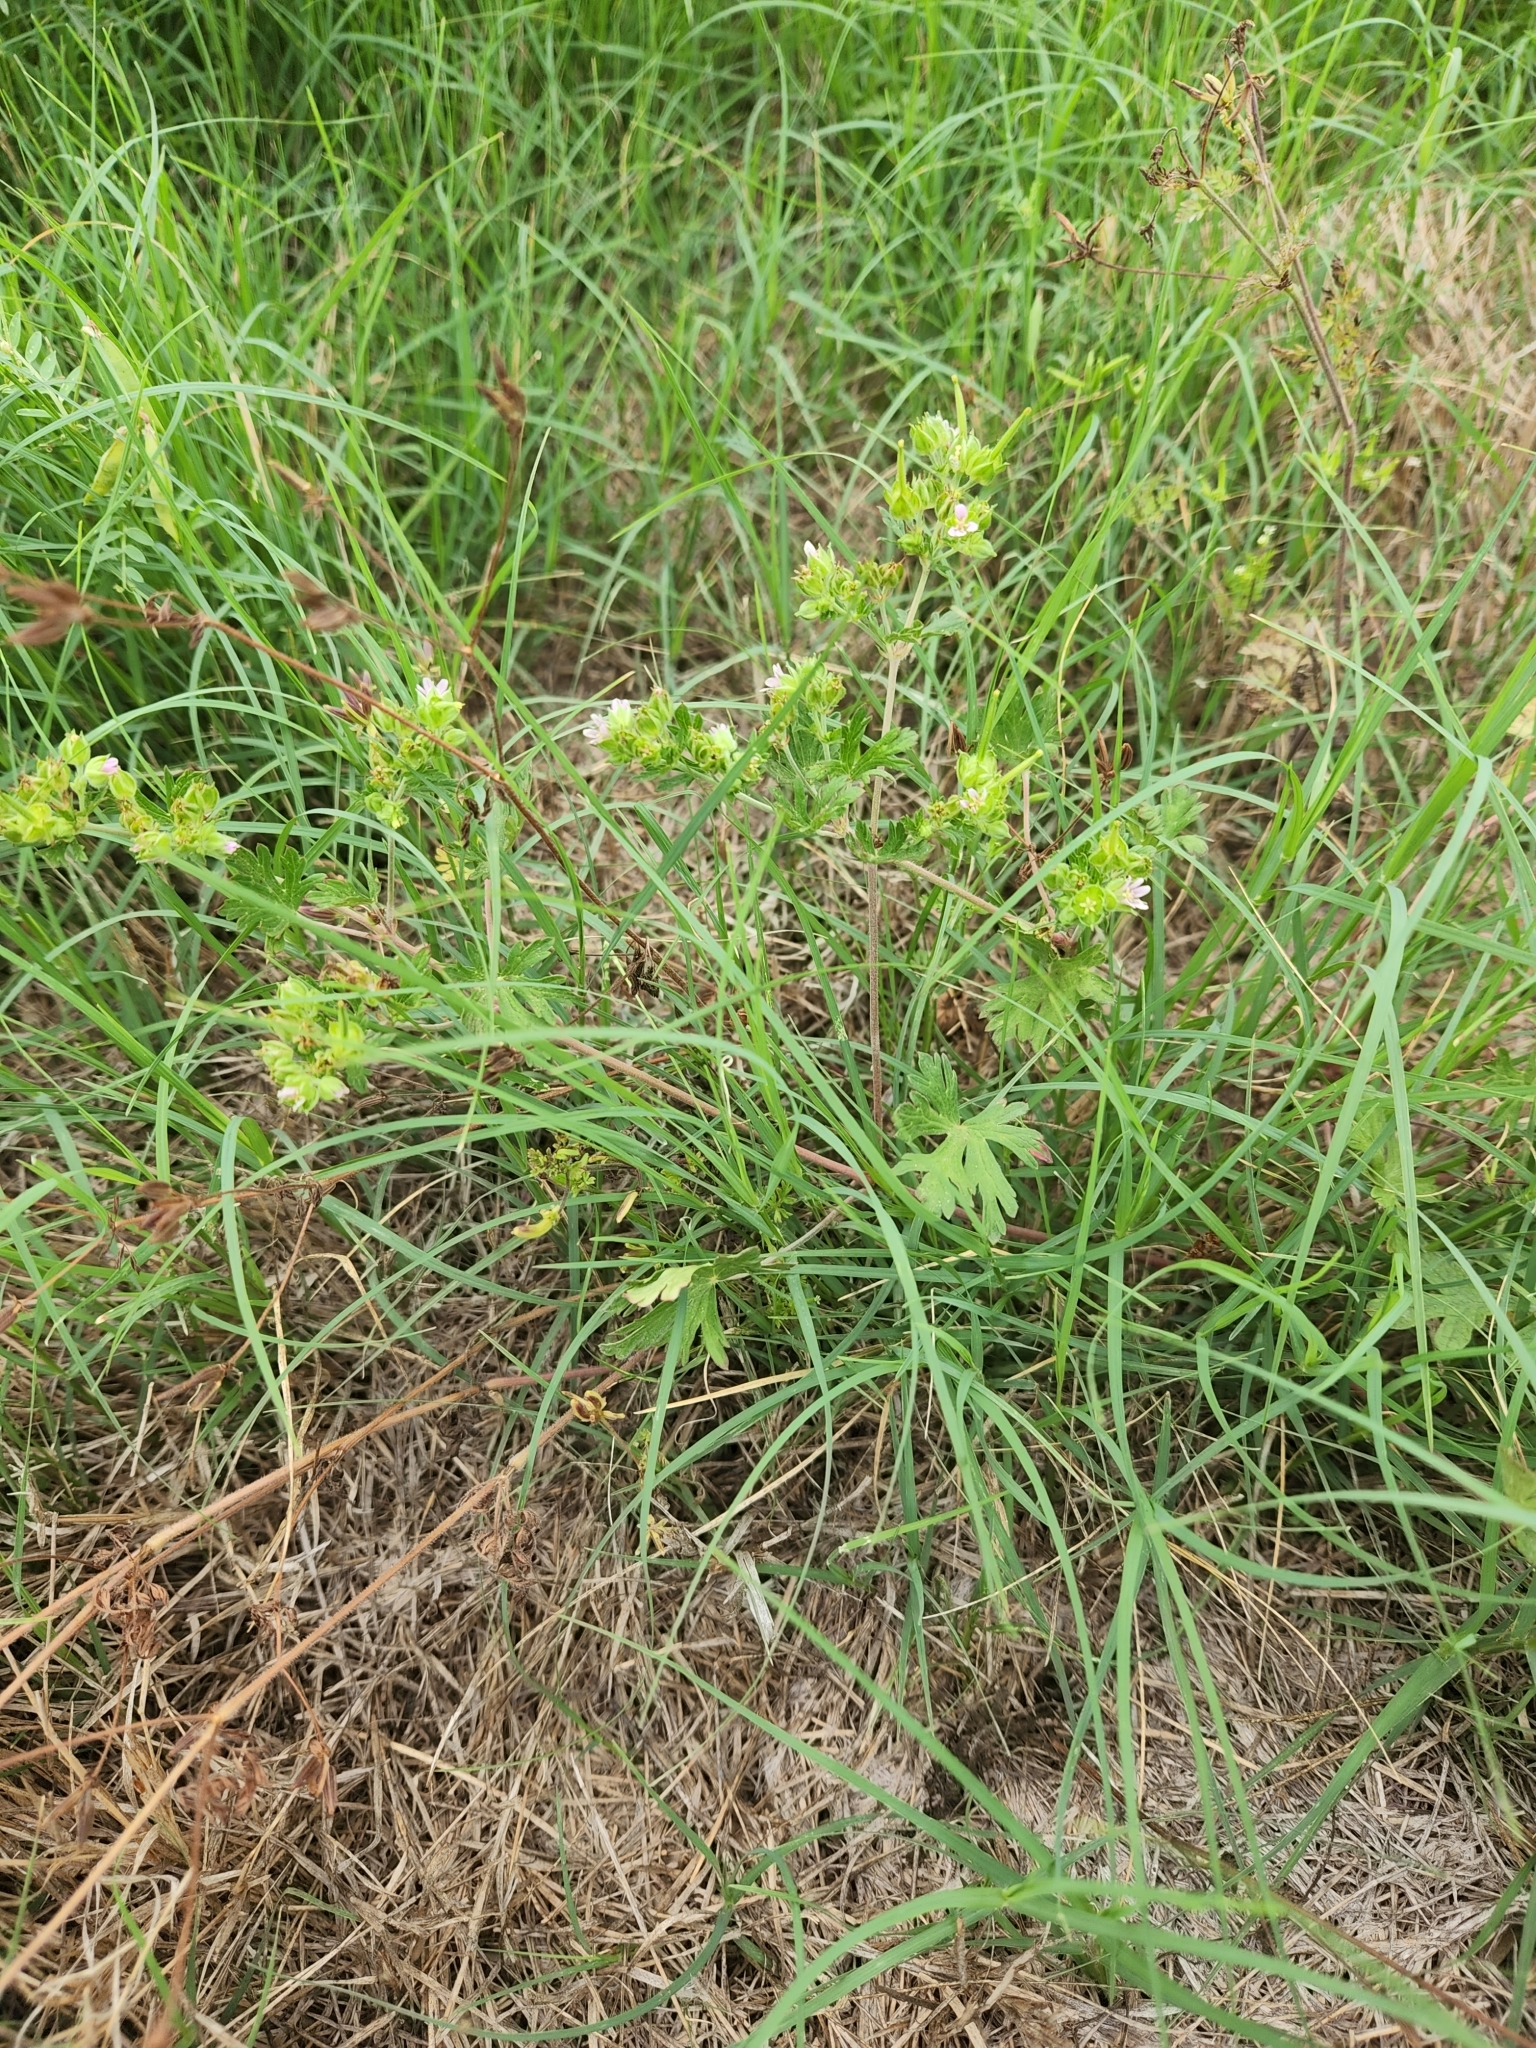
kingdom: Plantae
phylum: Tracheophyta
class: Magnoliopsida
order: Geraniales
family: Geraniaceae
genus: Geranium
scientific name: Geranium carolinianum
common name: Carolina crane's-bill
